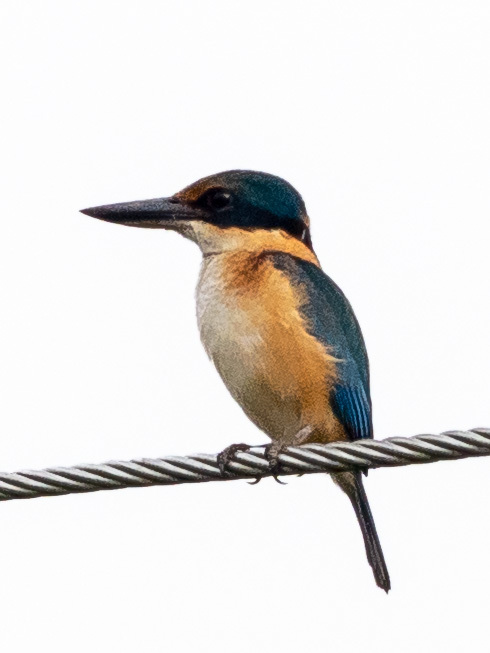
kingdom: Animalia
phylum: Chordata
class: Aves
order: Coraciiformes
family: Alcedinidae
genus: Todiramphus
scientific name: Todiramphus sacer
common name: Pacific kingfisher
